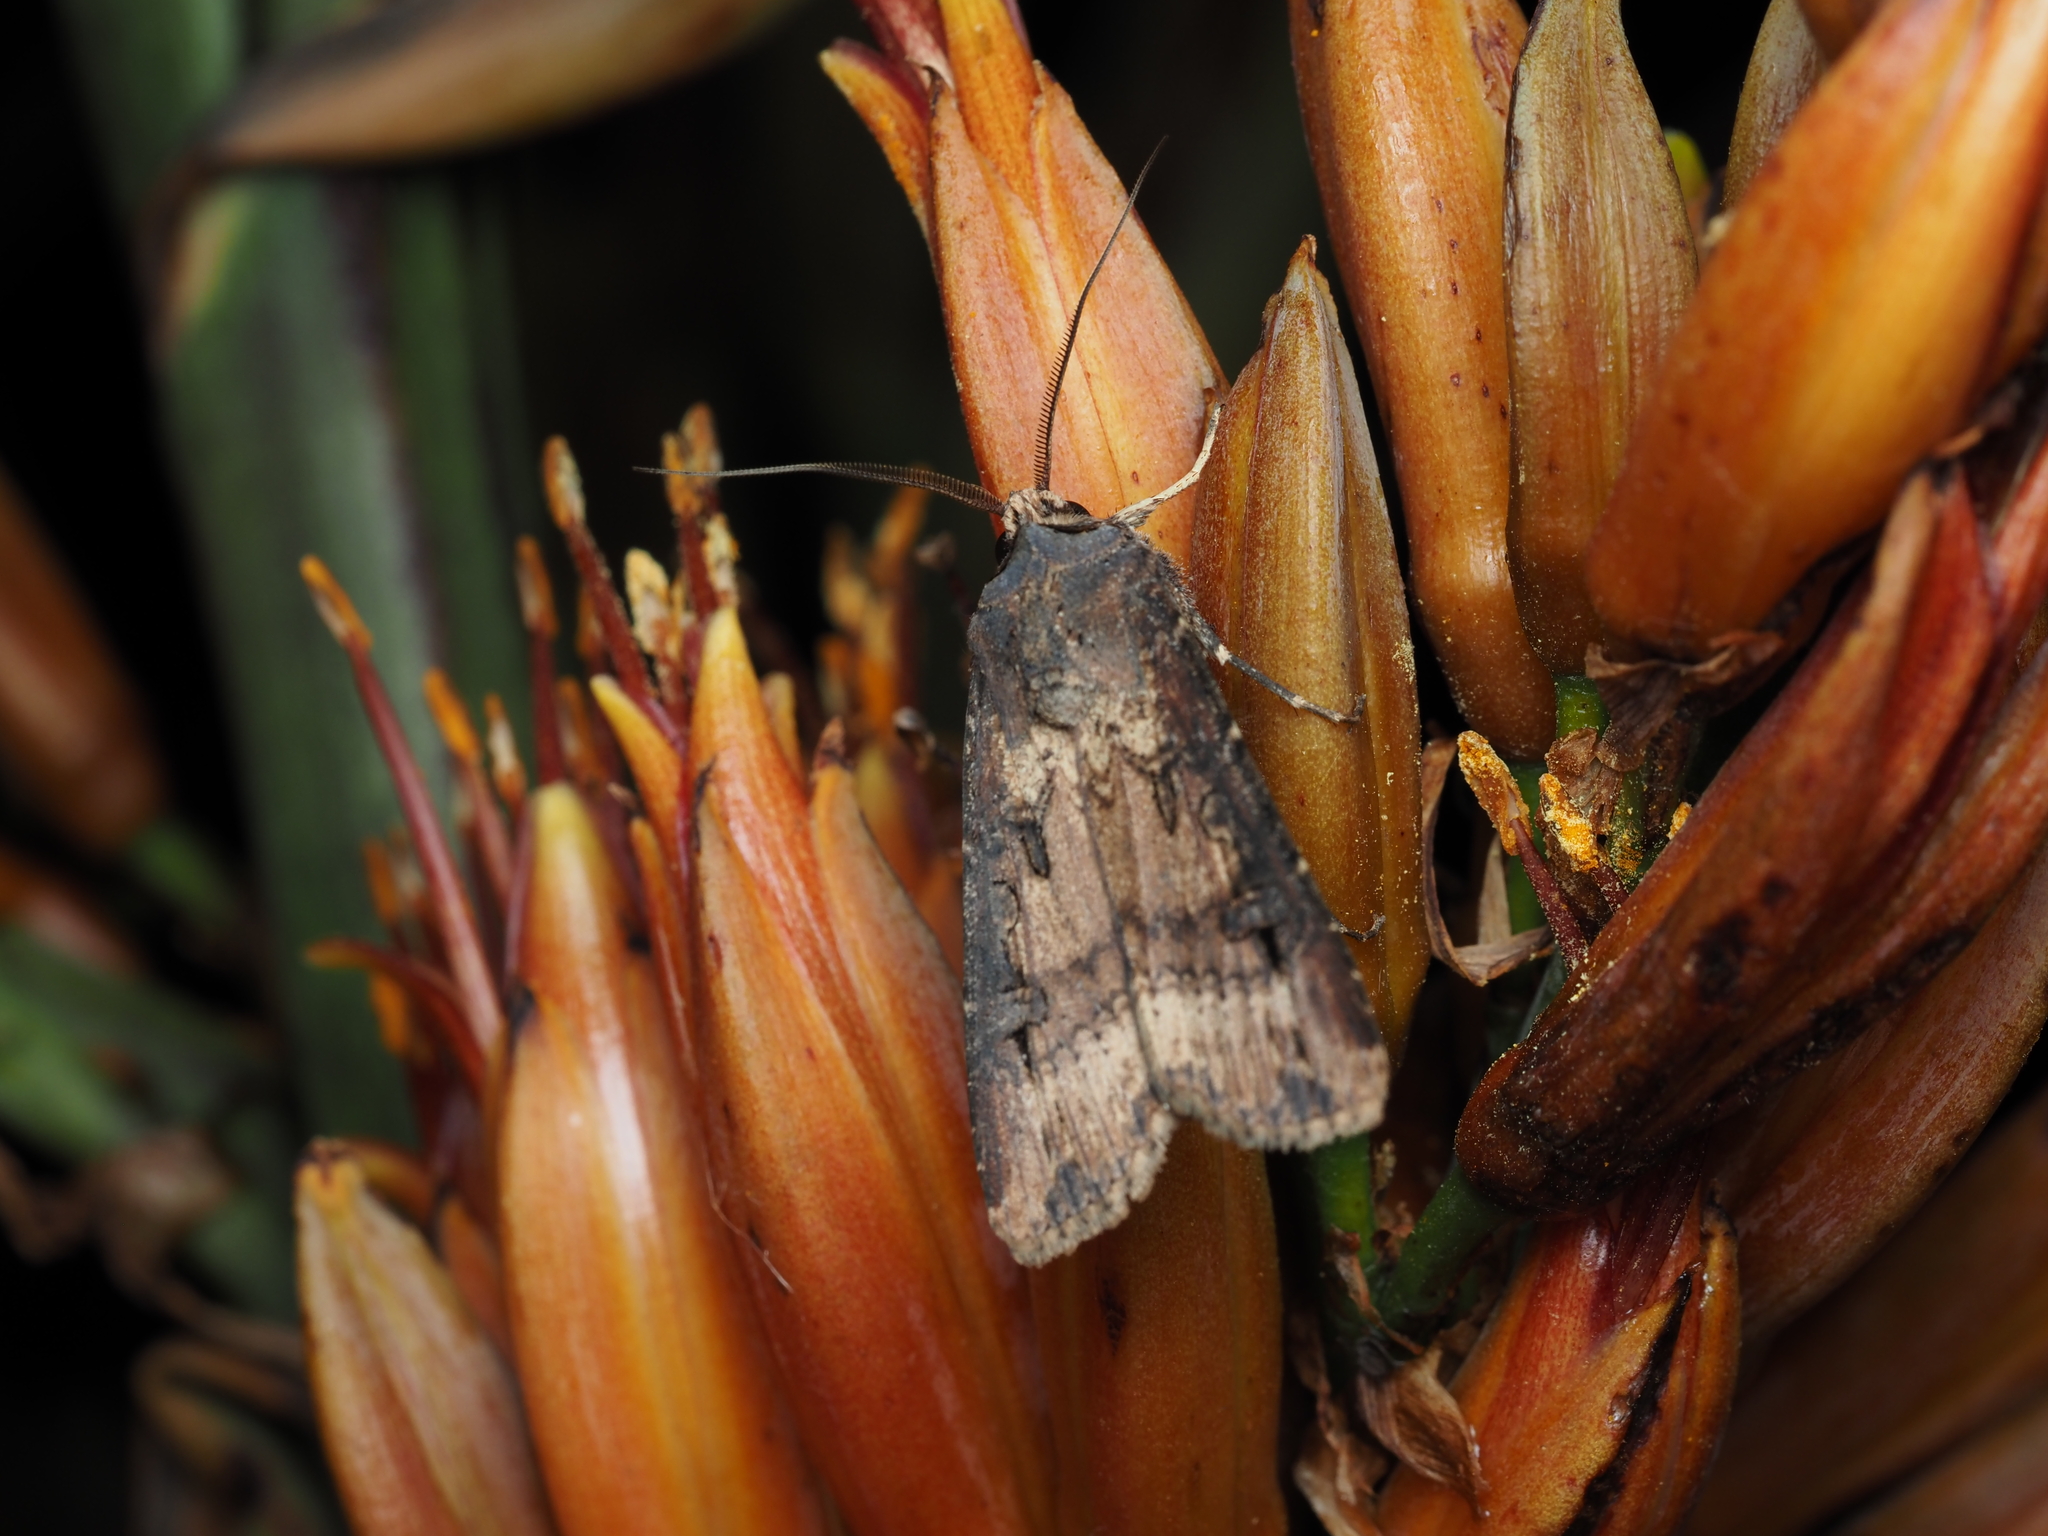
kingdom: Animalia
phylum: Arthropoda
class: Insecta
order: Lepidoptera
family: Noctuidae
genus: Agrotis
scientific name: Agrotis ipsilon
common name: Dark sword-grass
